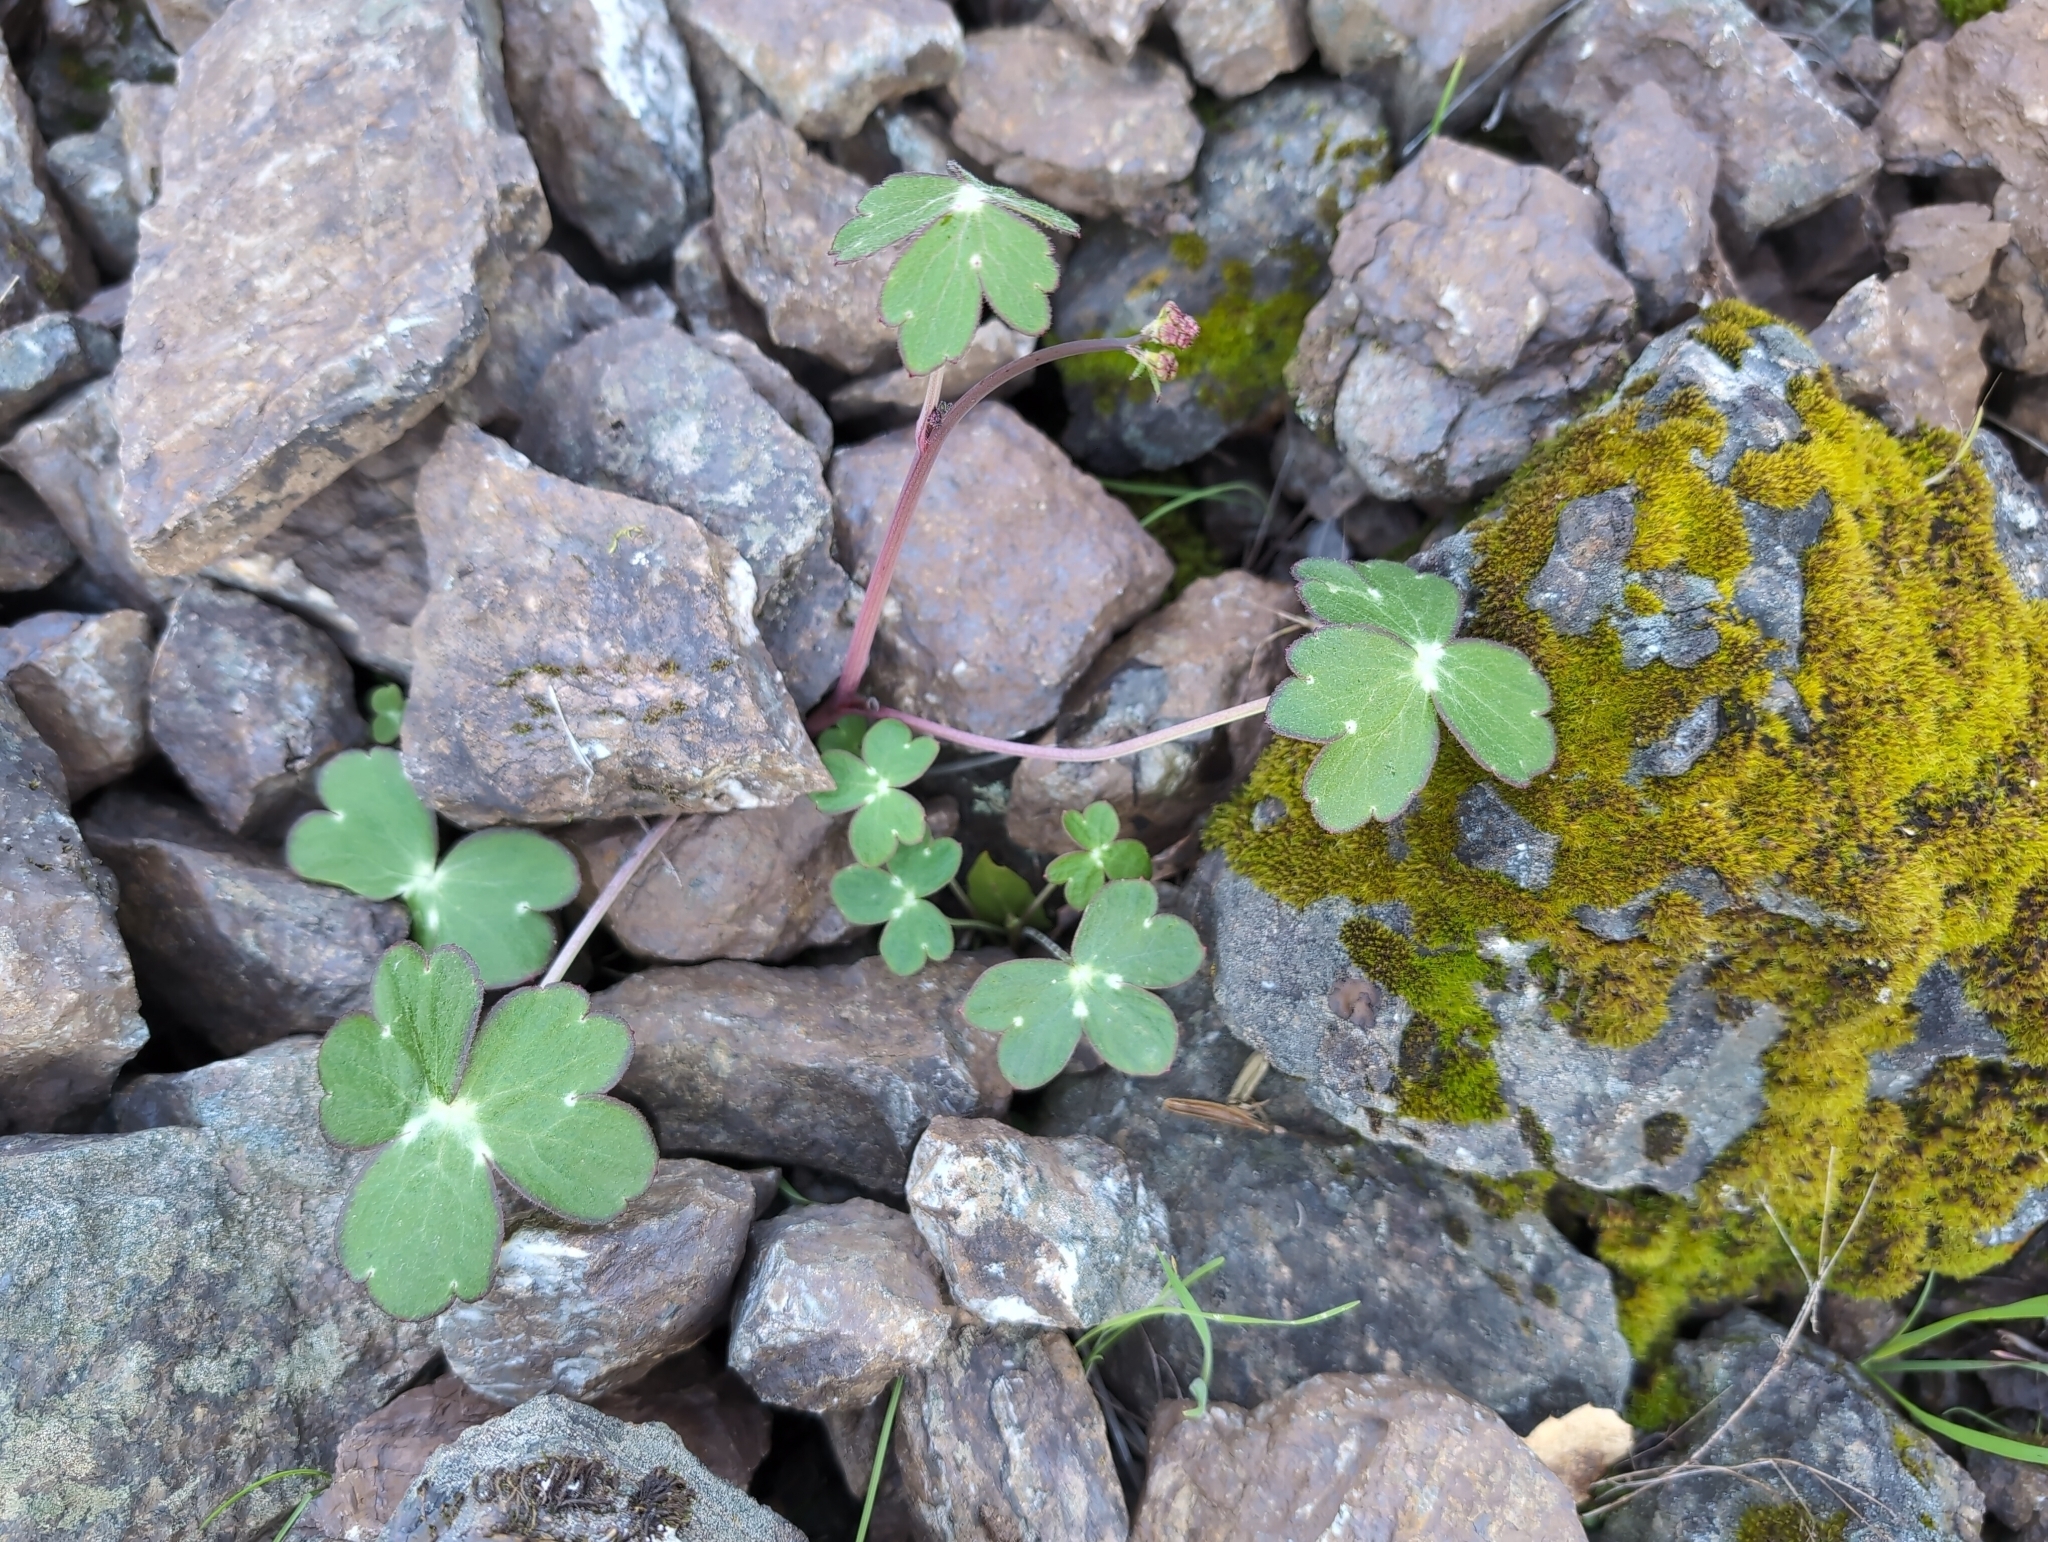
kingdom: Plantae
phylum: Tracheophyta
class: Magnoliopsida
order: Ranunculales
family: Ranunculaceae
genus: Delphinium
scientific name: Delphinium nudicaule
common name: Red larkspur
